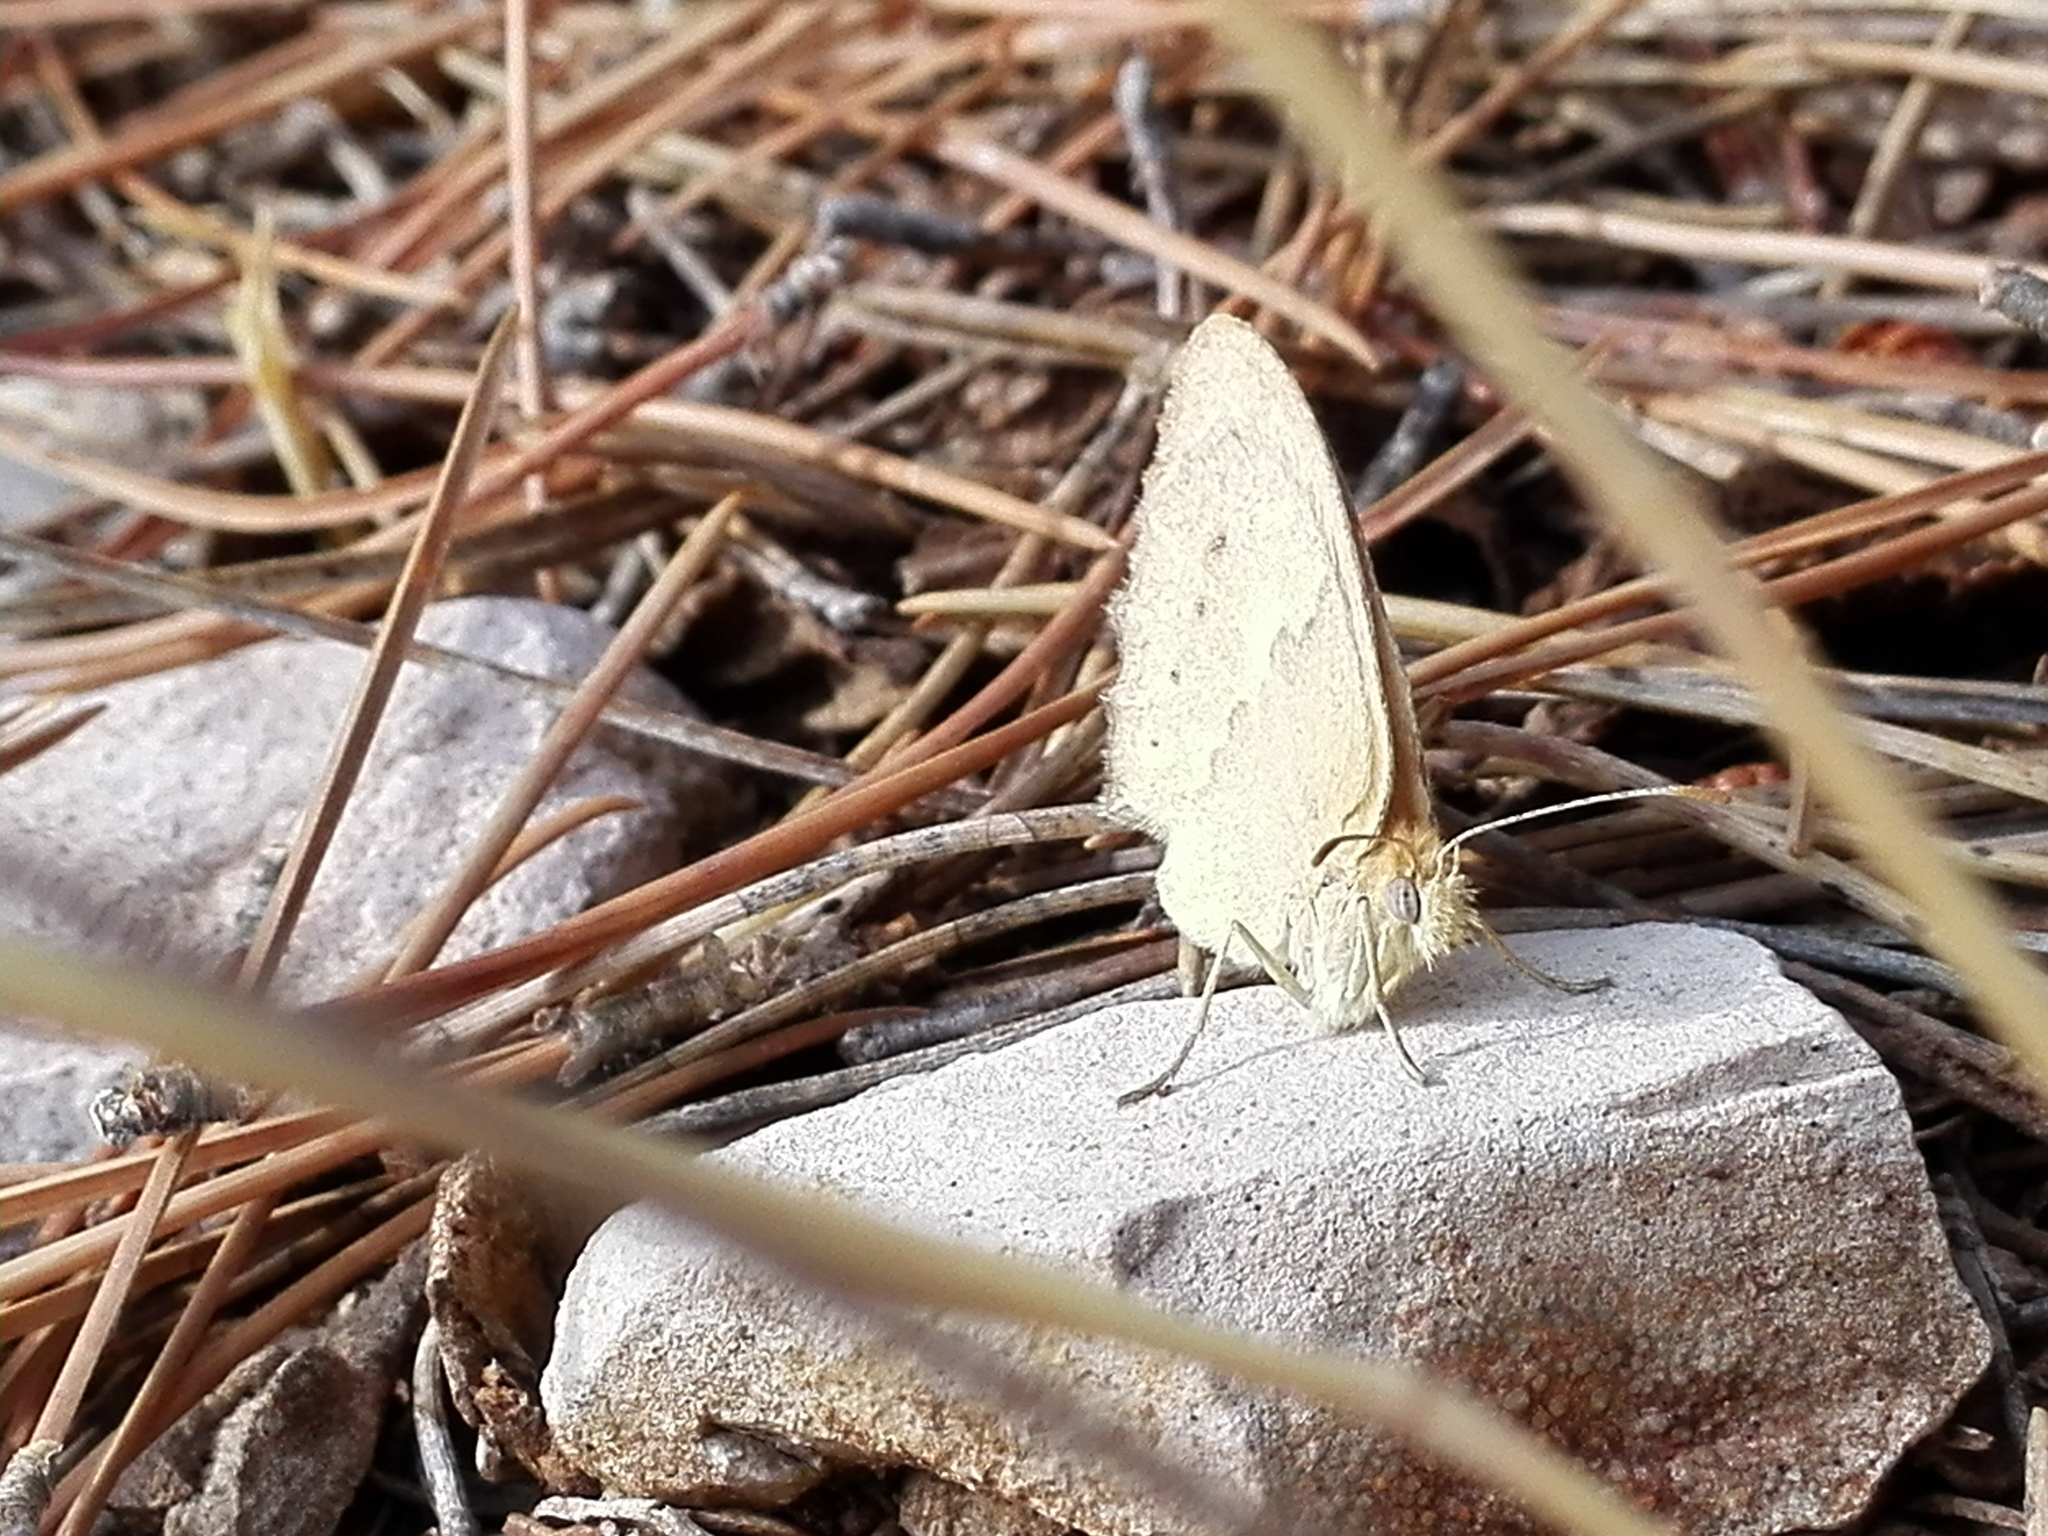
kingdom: Animalia
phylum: Arthropoda
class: Insecta
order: Lepidoptera
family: Nymphalidae
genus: Coenonympha
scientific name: Coenonympha pamphilus
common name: Small heath
